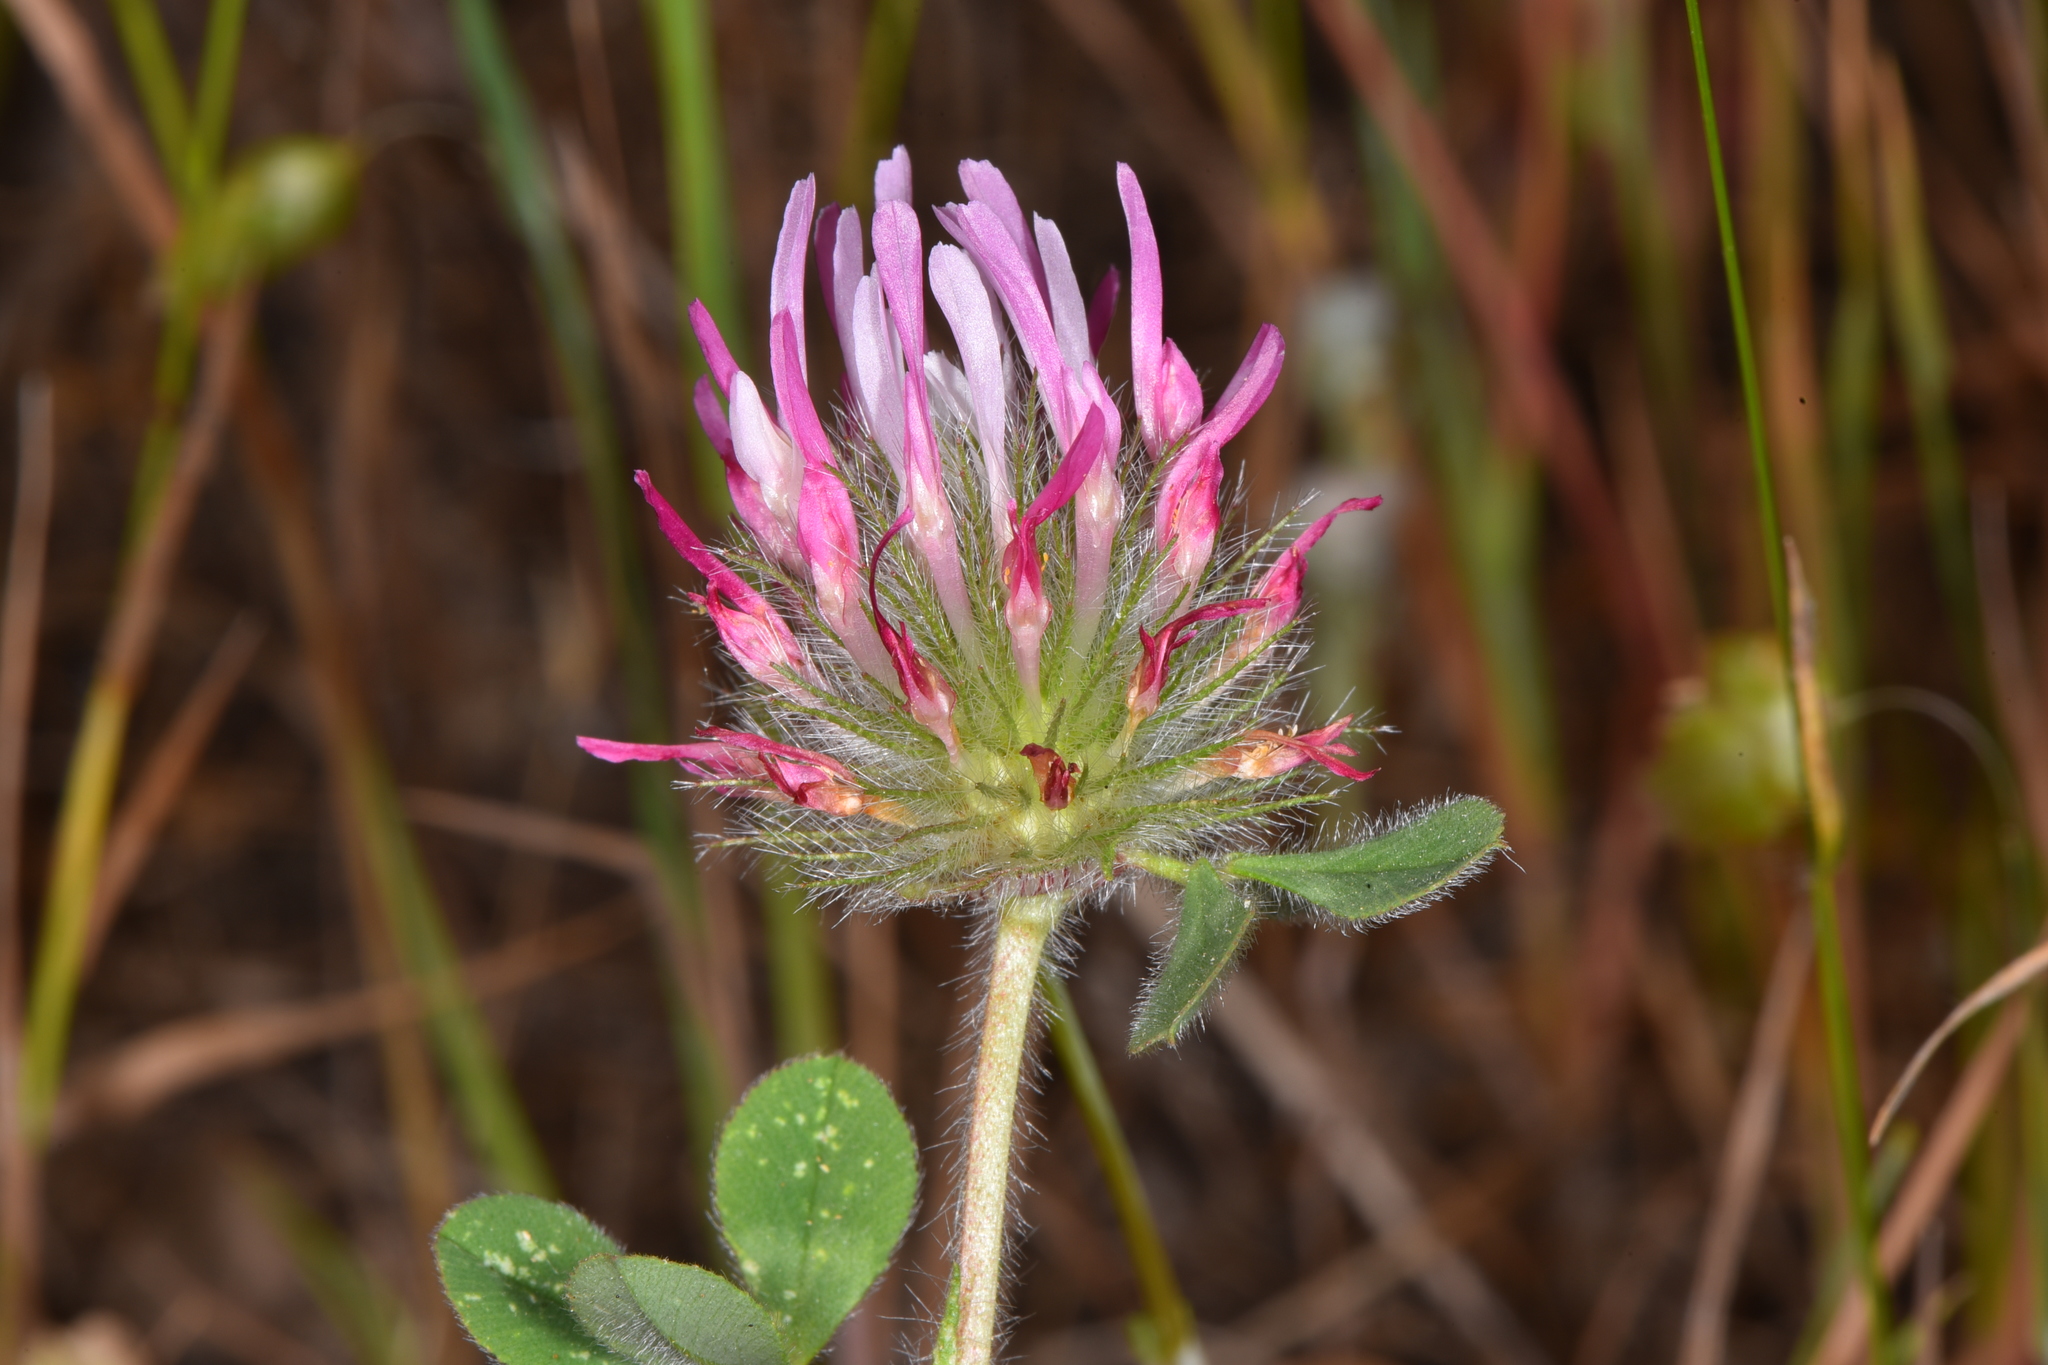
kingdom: Plantae
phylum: Tracheophyta
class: Magnoliopsida
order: Fabales
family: Fabaceae
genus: Trifolium
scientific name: Trifolium hirtum
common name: Rose clover
